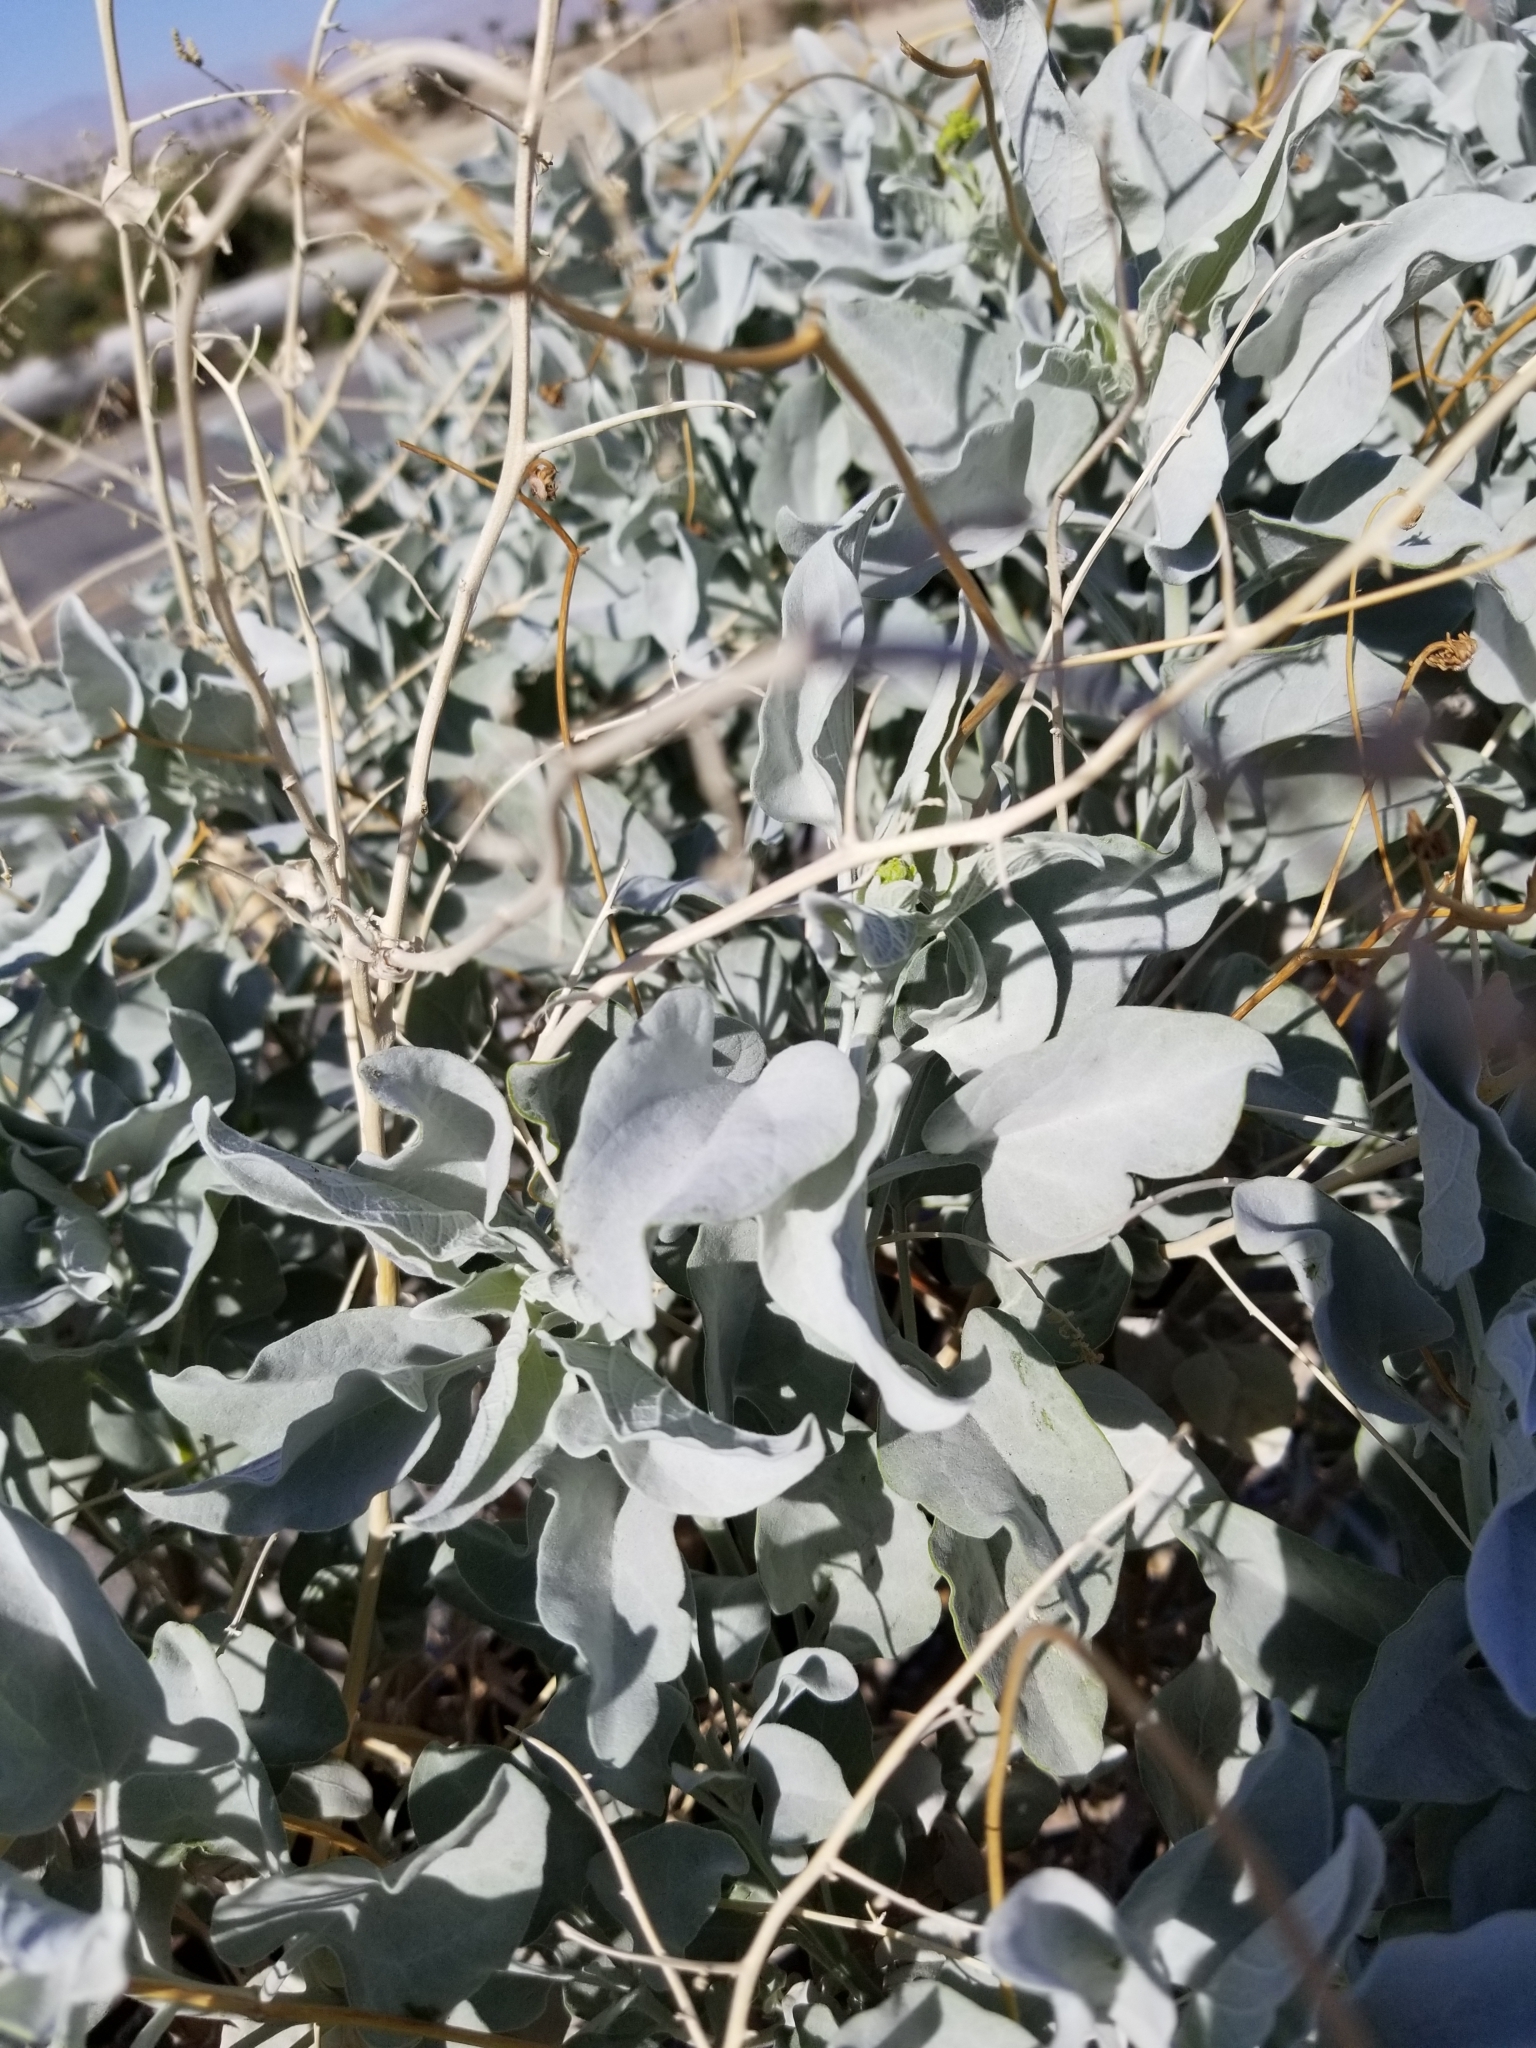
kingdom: Plantae
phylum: Tracheophyta
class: Magnoliopsida
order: Asterales
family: Asteraceae
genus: Encelia
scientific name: Encelia farinosa
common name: Brittlebush
